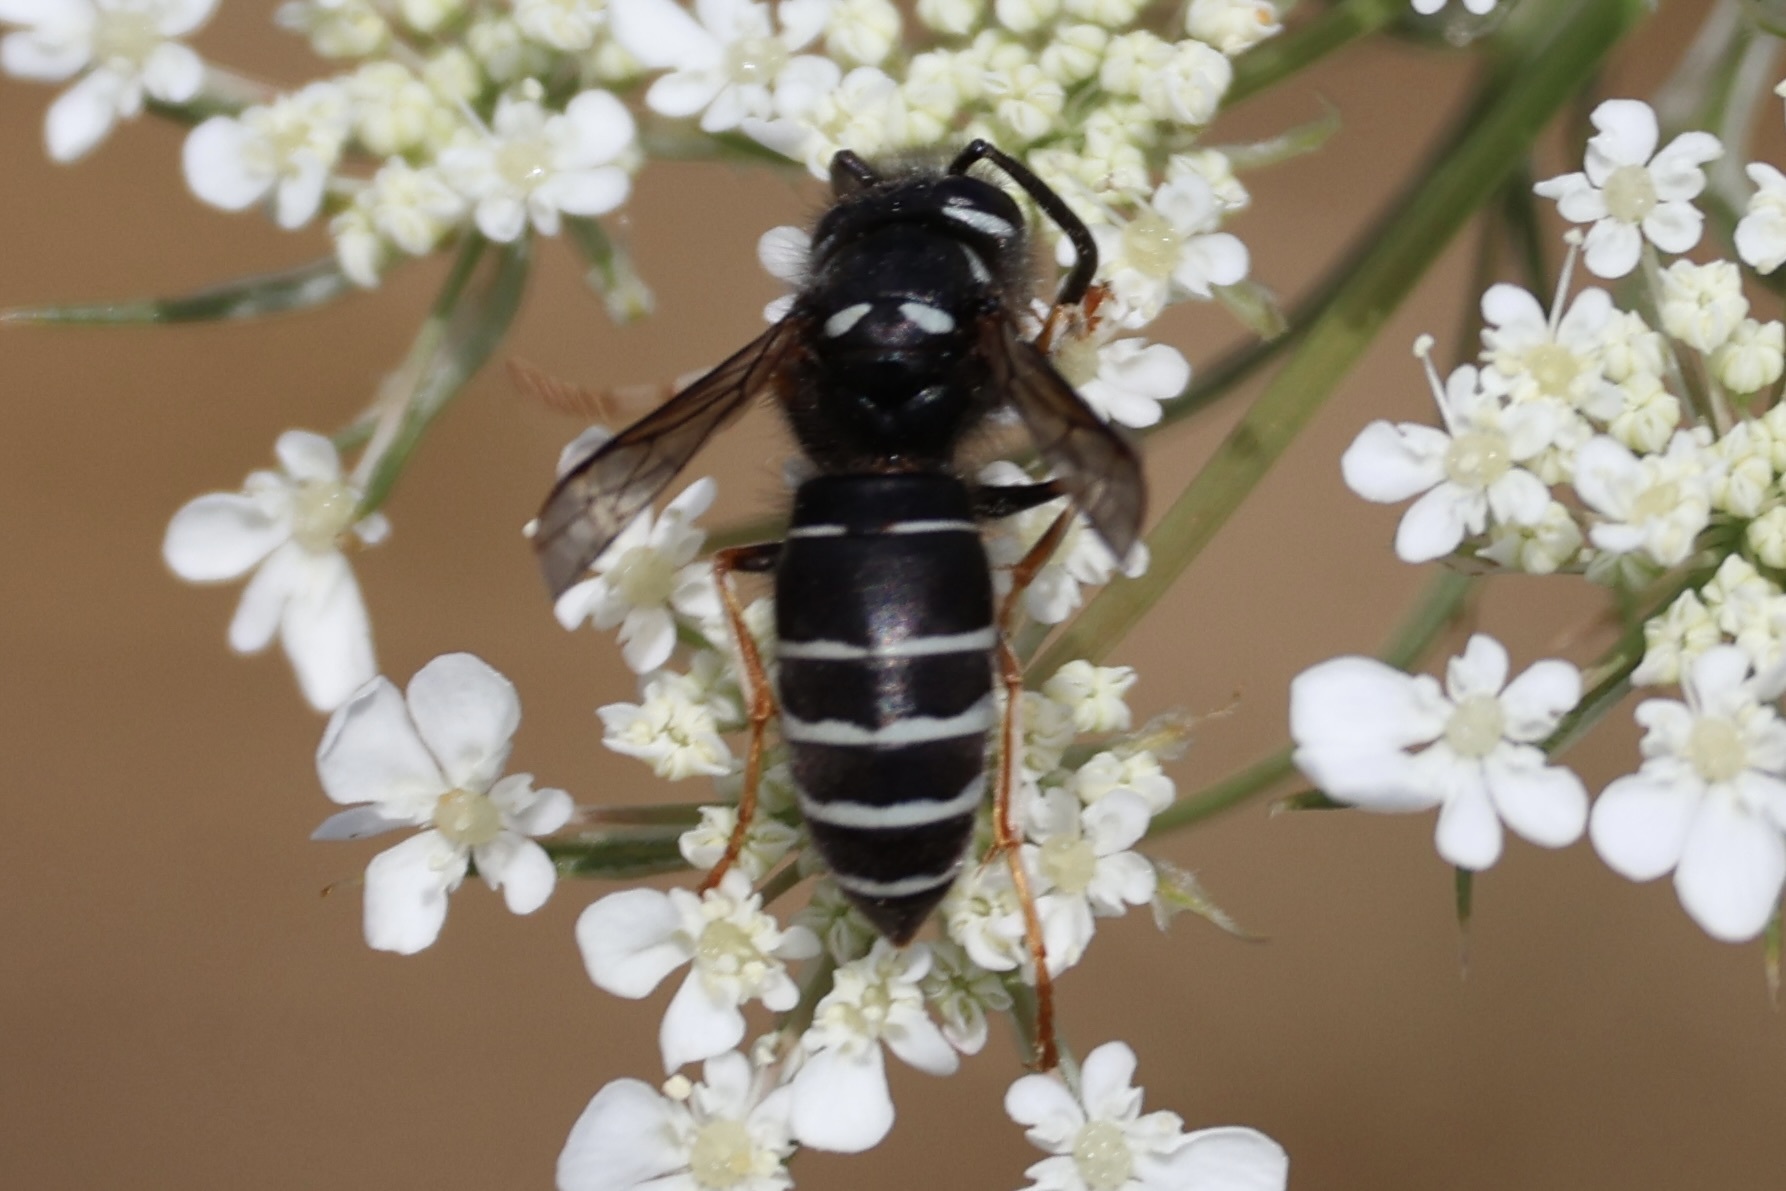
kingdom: Animalia
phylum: Arthropoda
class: Insecta
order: Hymenoptera
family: Vespidae
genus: Vespula
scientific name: Vespula consobrina
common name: Blackjacket
